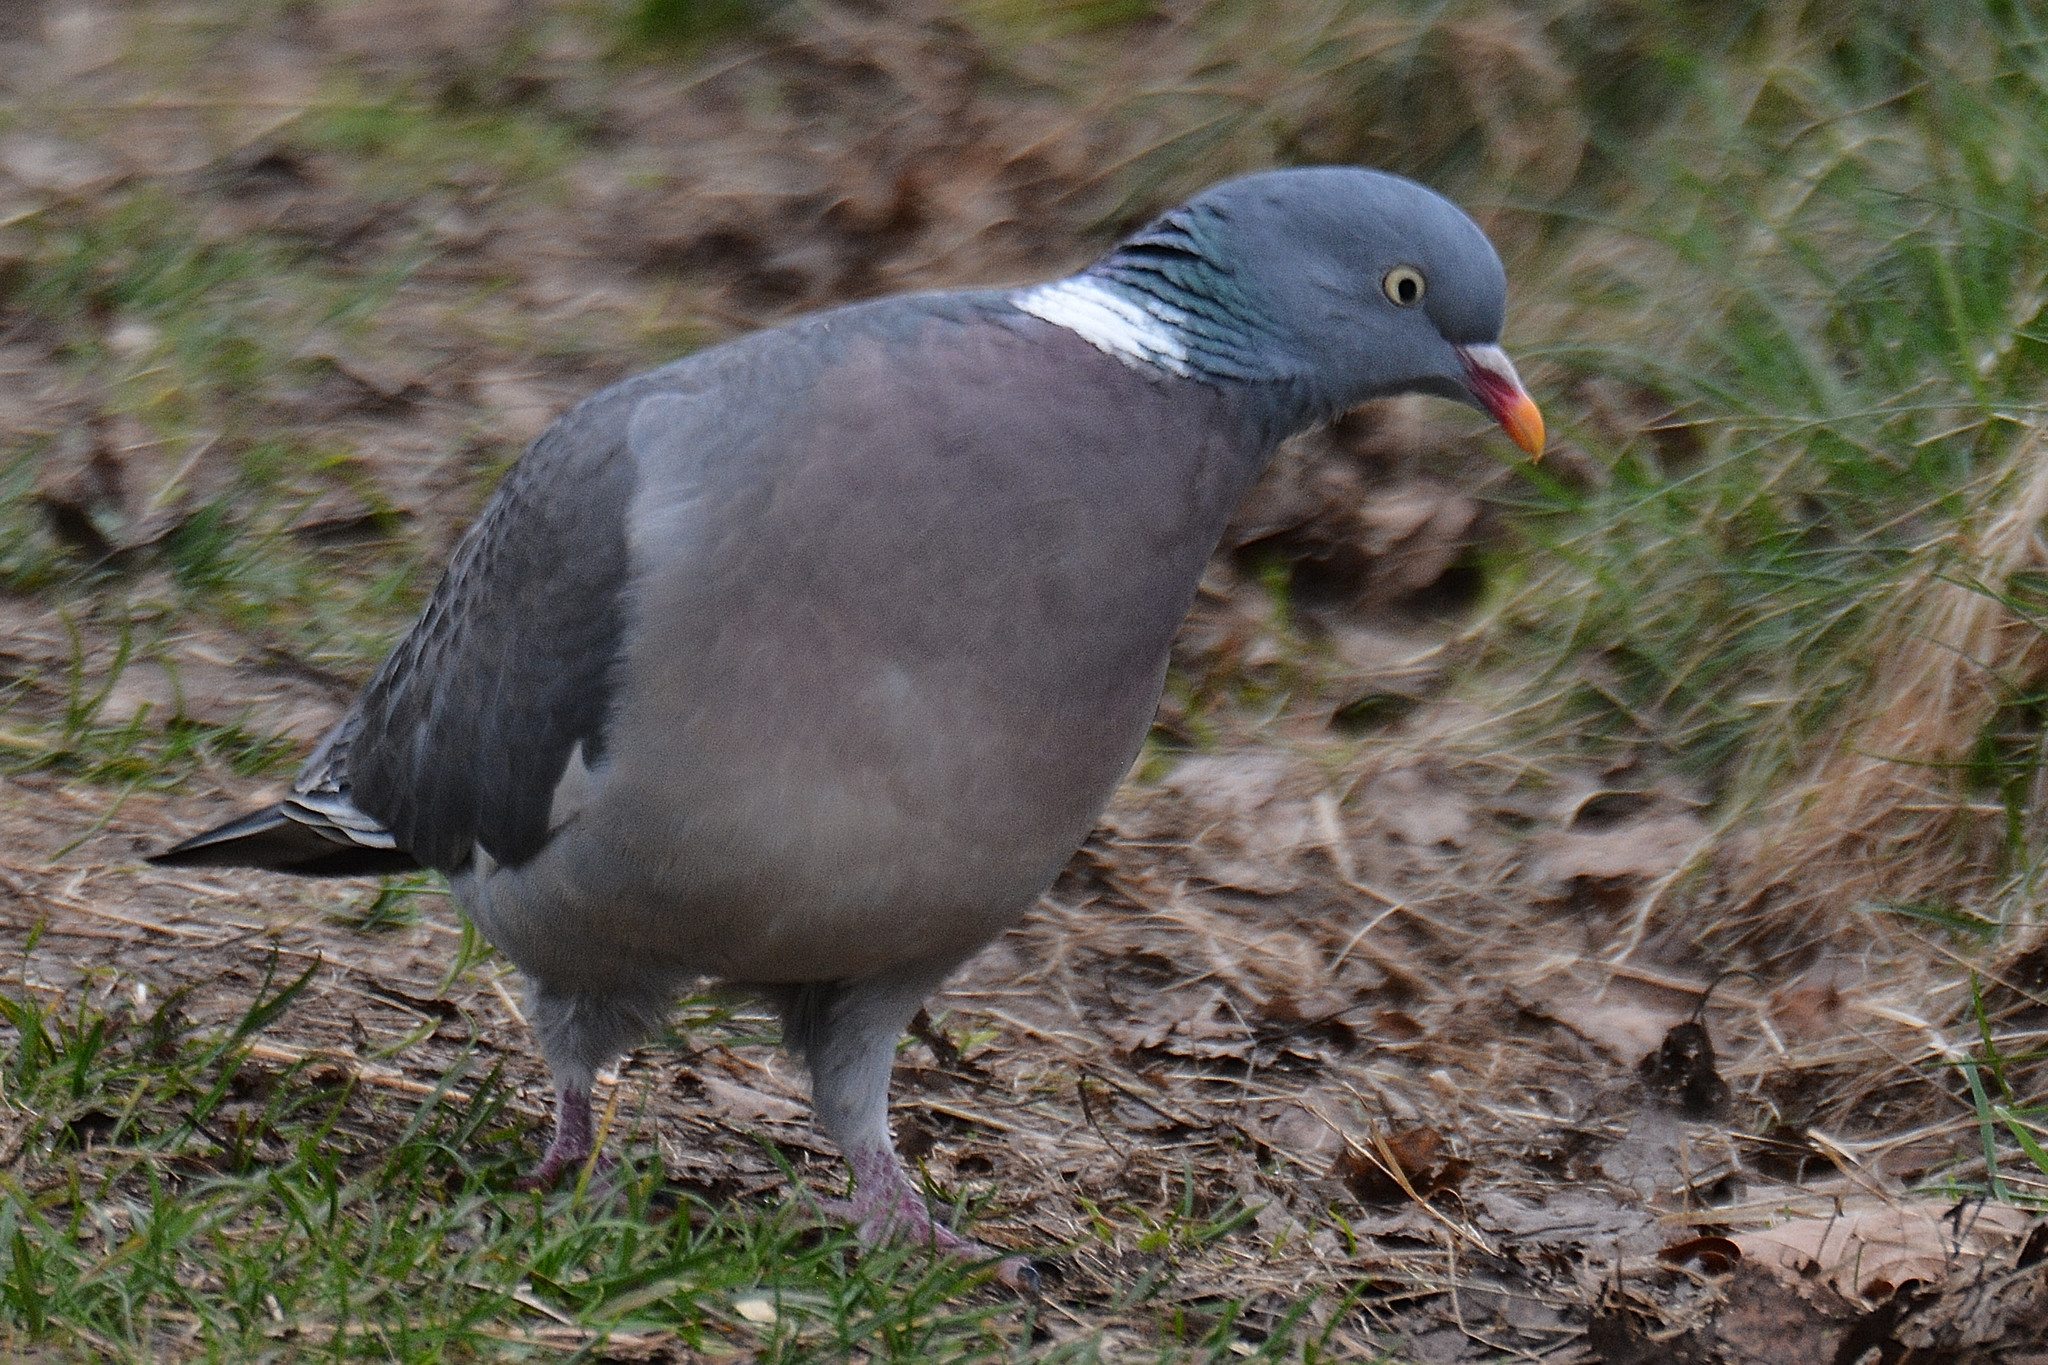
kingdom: Animalia
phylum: Chordata
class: Aves
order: Columbiformes
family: Columbidae
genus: Columba
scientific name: Columba palumbus
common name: Common wood pigeon
